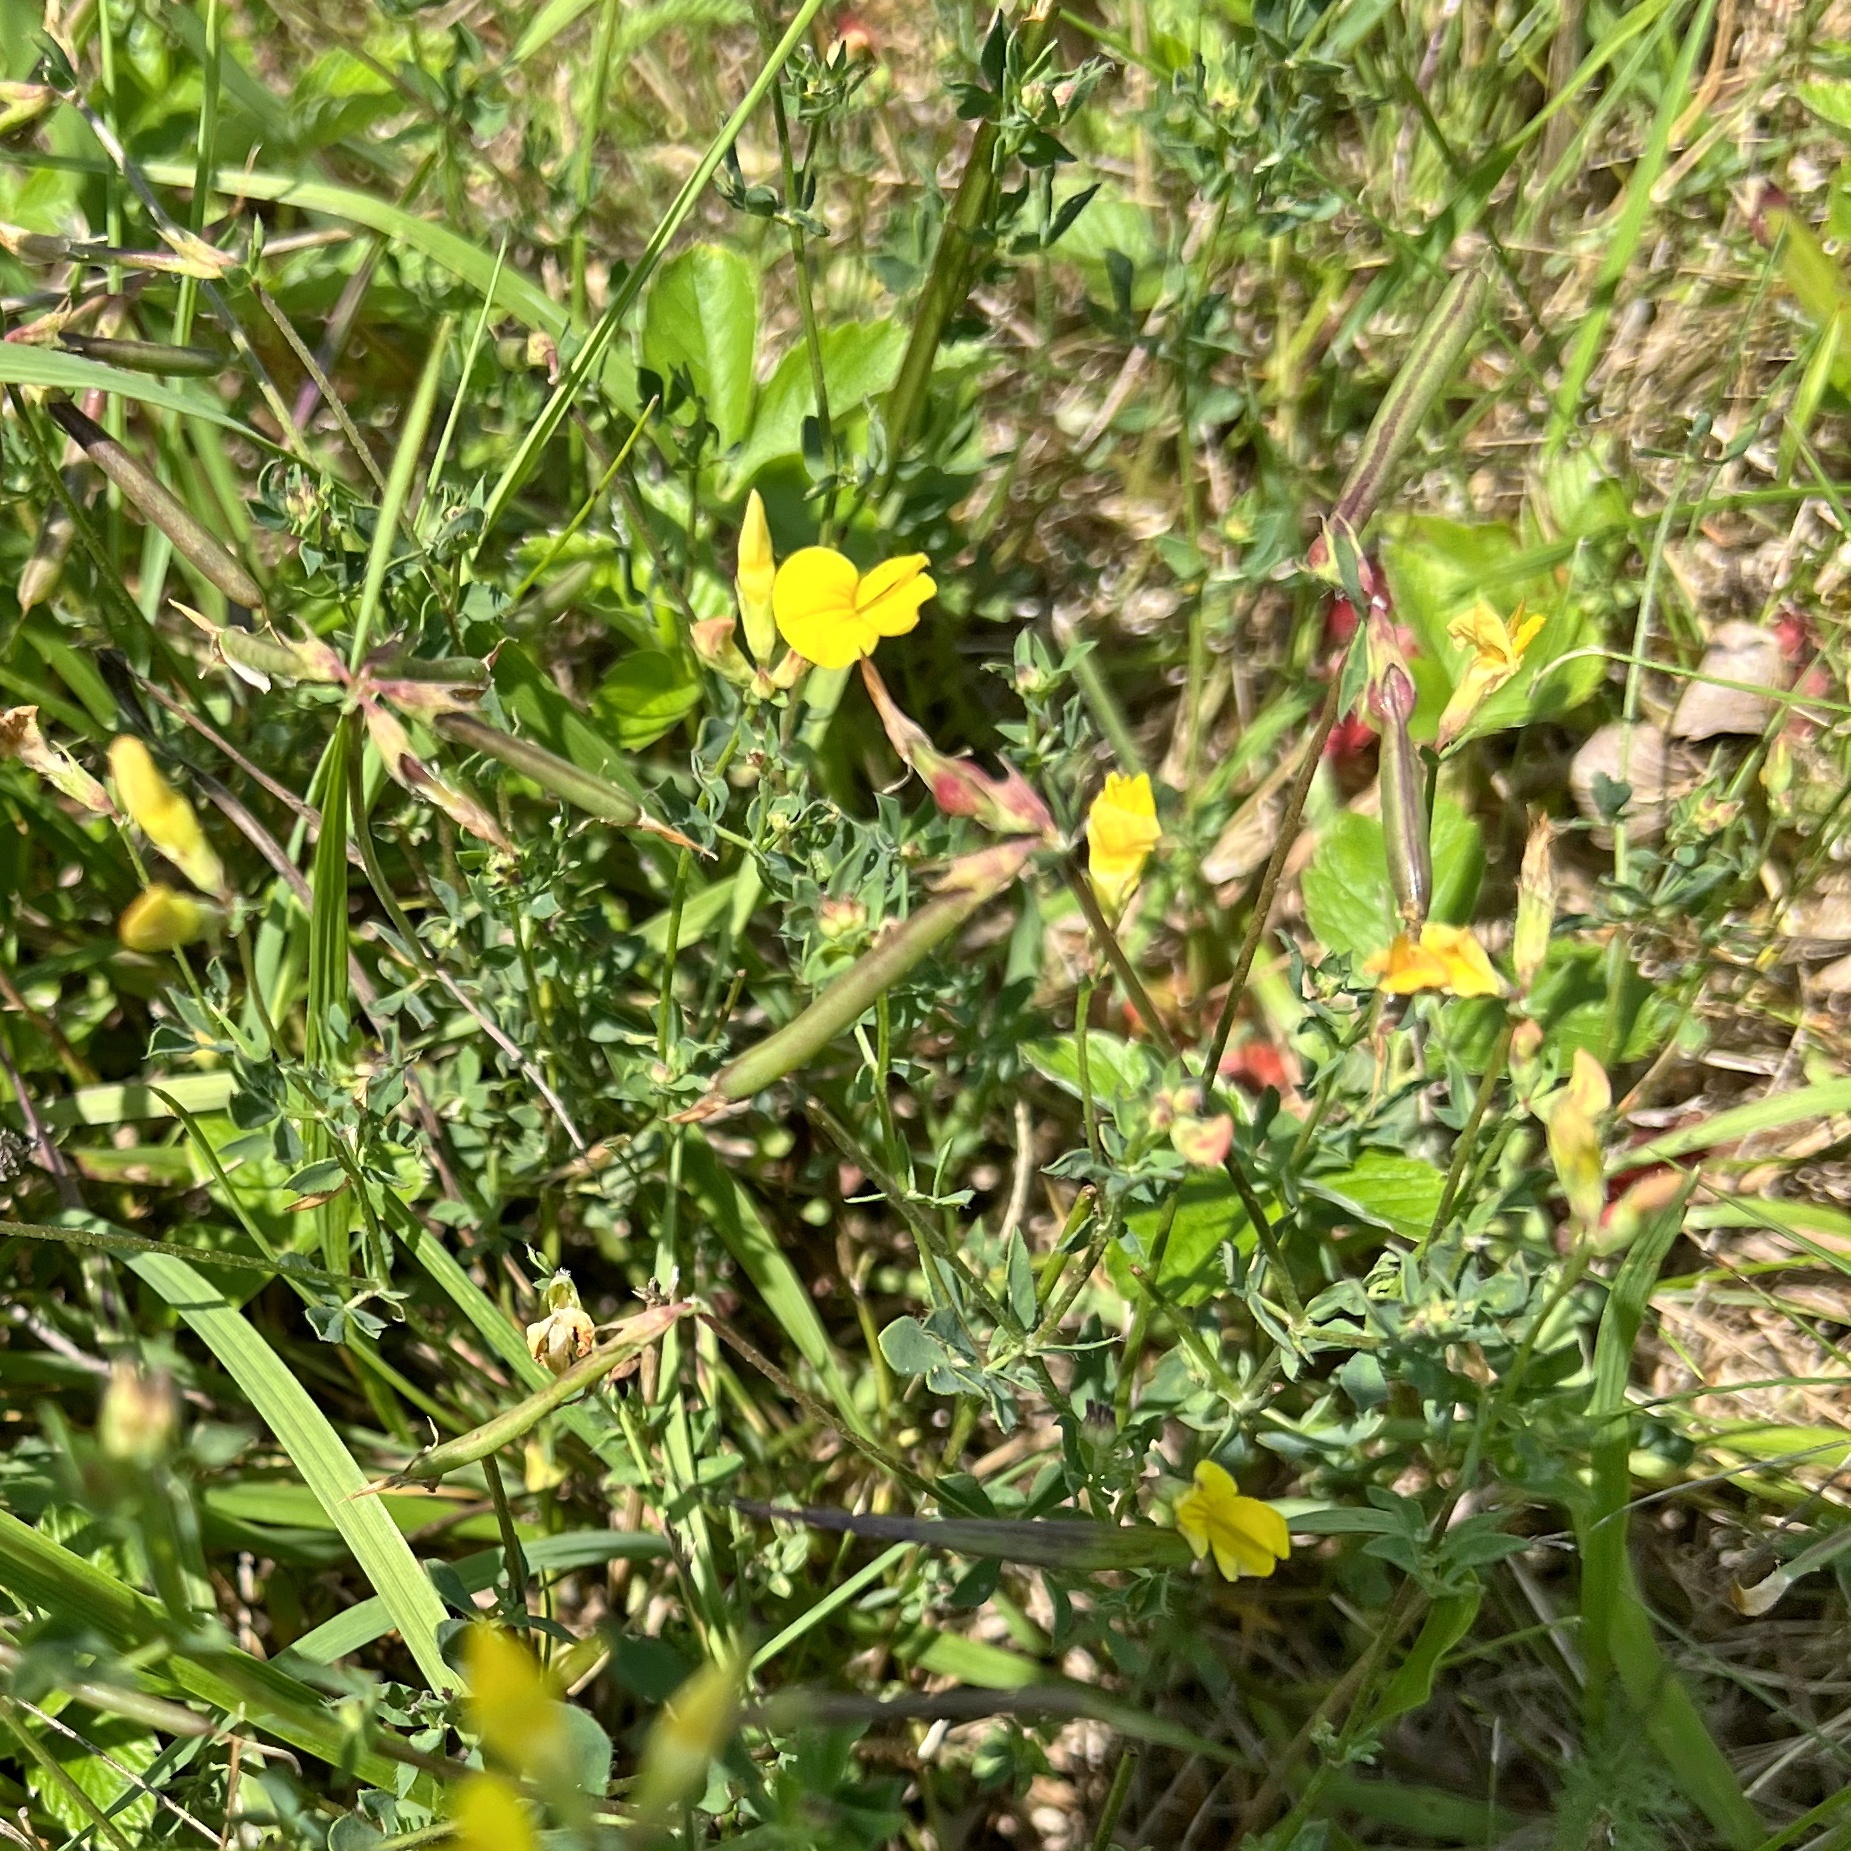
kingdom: Plantae
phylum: Tracheophyta
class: Magnoliopsida
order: Fabales
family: Fabaceae
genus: Lotus
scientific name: Lotus corniculatus
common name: Common bird's-foot-trefoil
